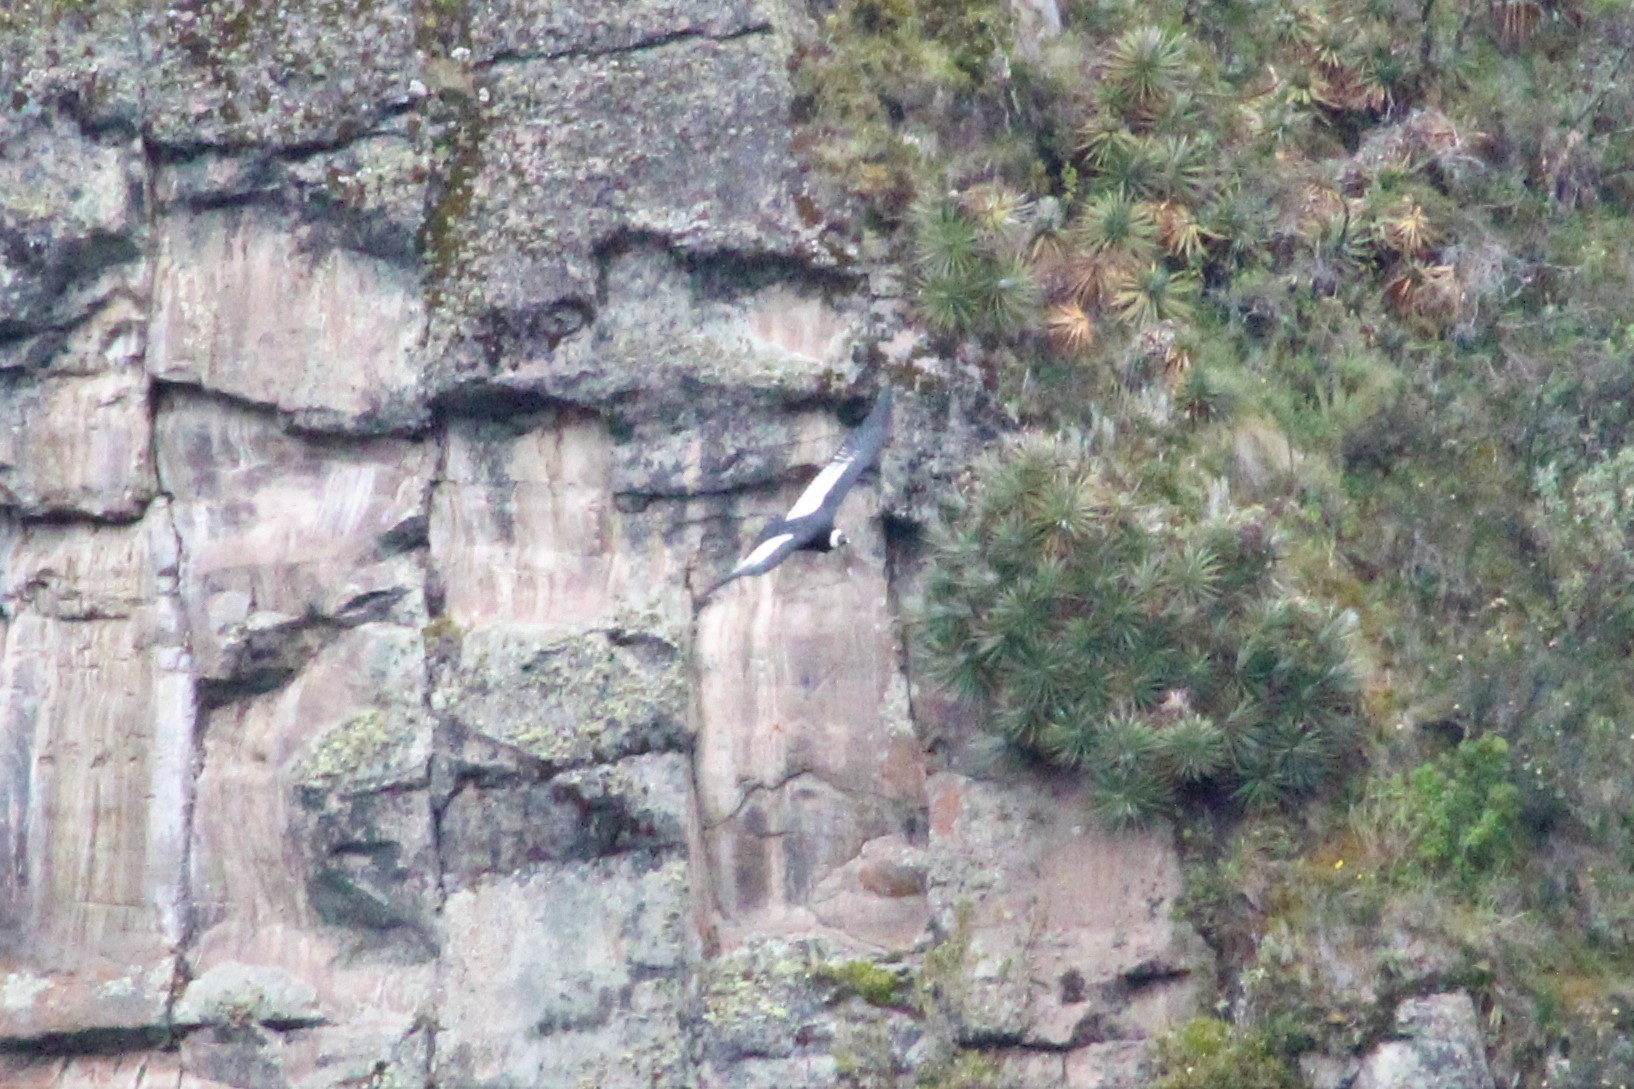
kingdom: Animalia
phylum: Chordata
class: Aves
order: Accipitriformes
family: Cathartidae
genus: Vultur
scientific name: Vultur gryphus
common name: Andean condor
